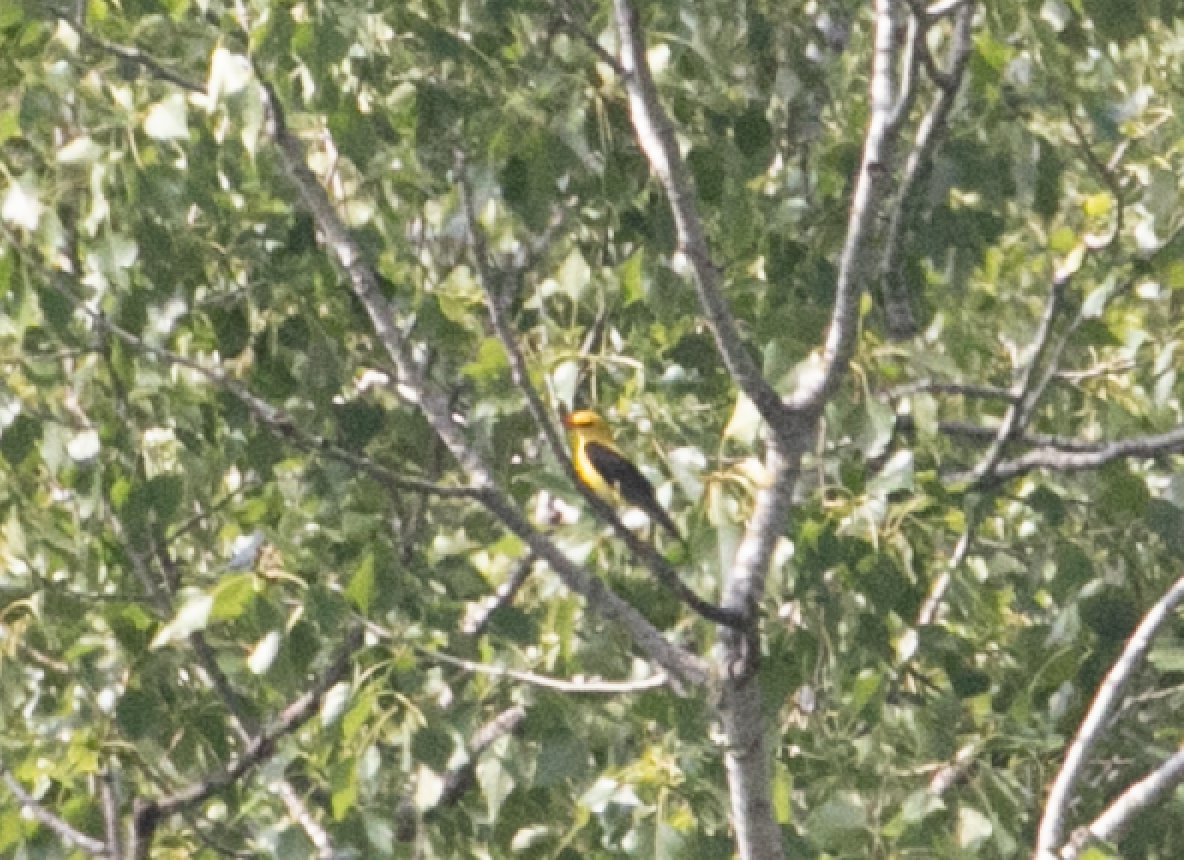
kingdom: Animalia
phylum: Chordata
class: Aves
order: Passeriformes
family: Oriolidae
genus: Oriolus
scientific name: Oriolus oriolus
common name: Eurasian golden oriole
